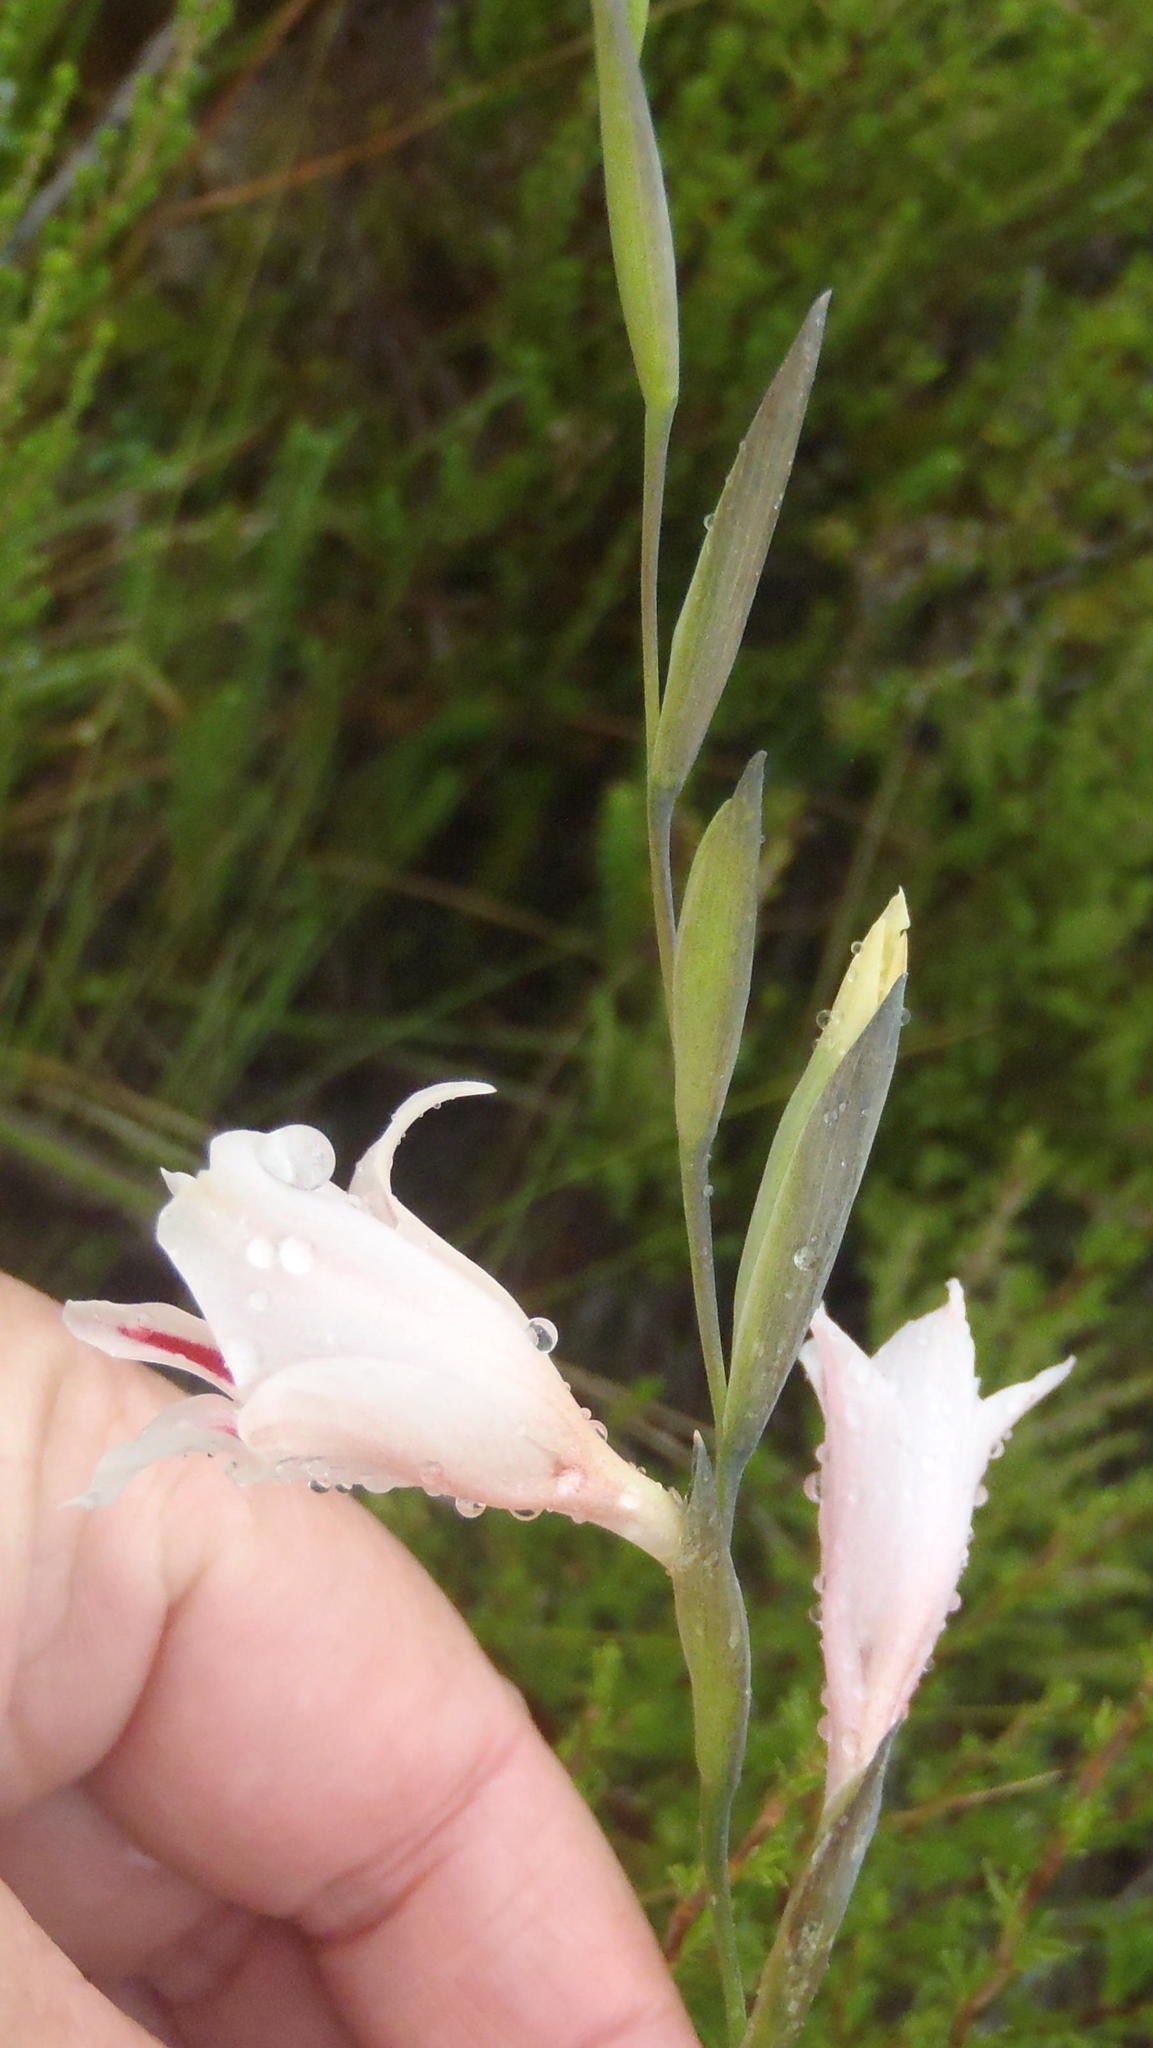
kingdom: Plantae
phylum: Tracheophyta
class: Liliopsida
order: Asparagales
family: Iridaceae
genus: Gladiolus
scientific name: Gladiolus nigromontanus
